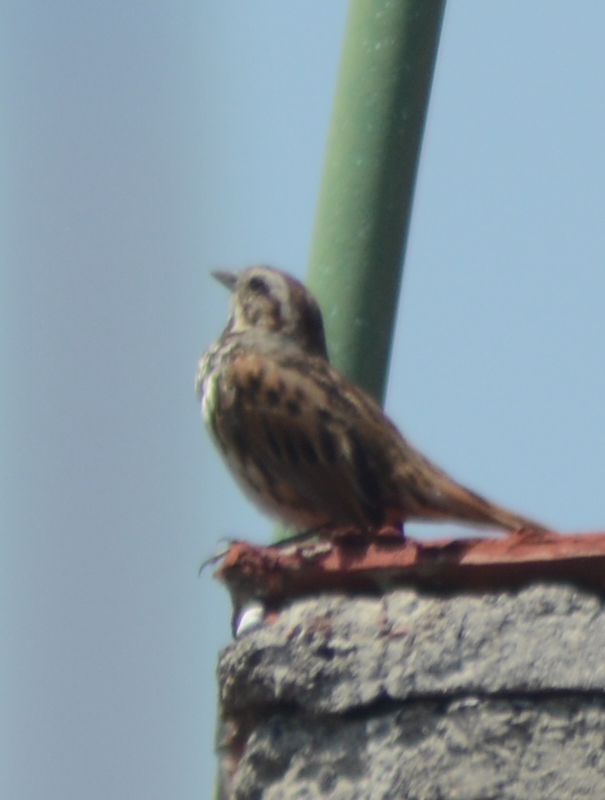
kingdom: Animalia
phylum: Chordata
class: Aves
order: Passeriformes
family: Passerellidae
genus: Melospiza
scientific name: Melospiza melodia
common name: Song sparrow
